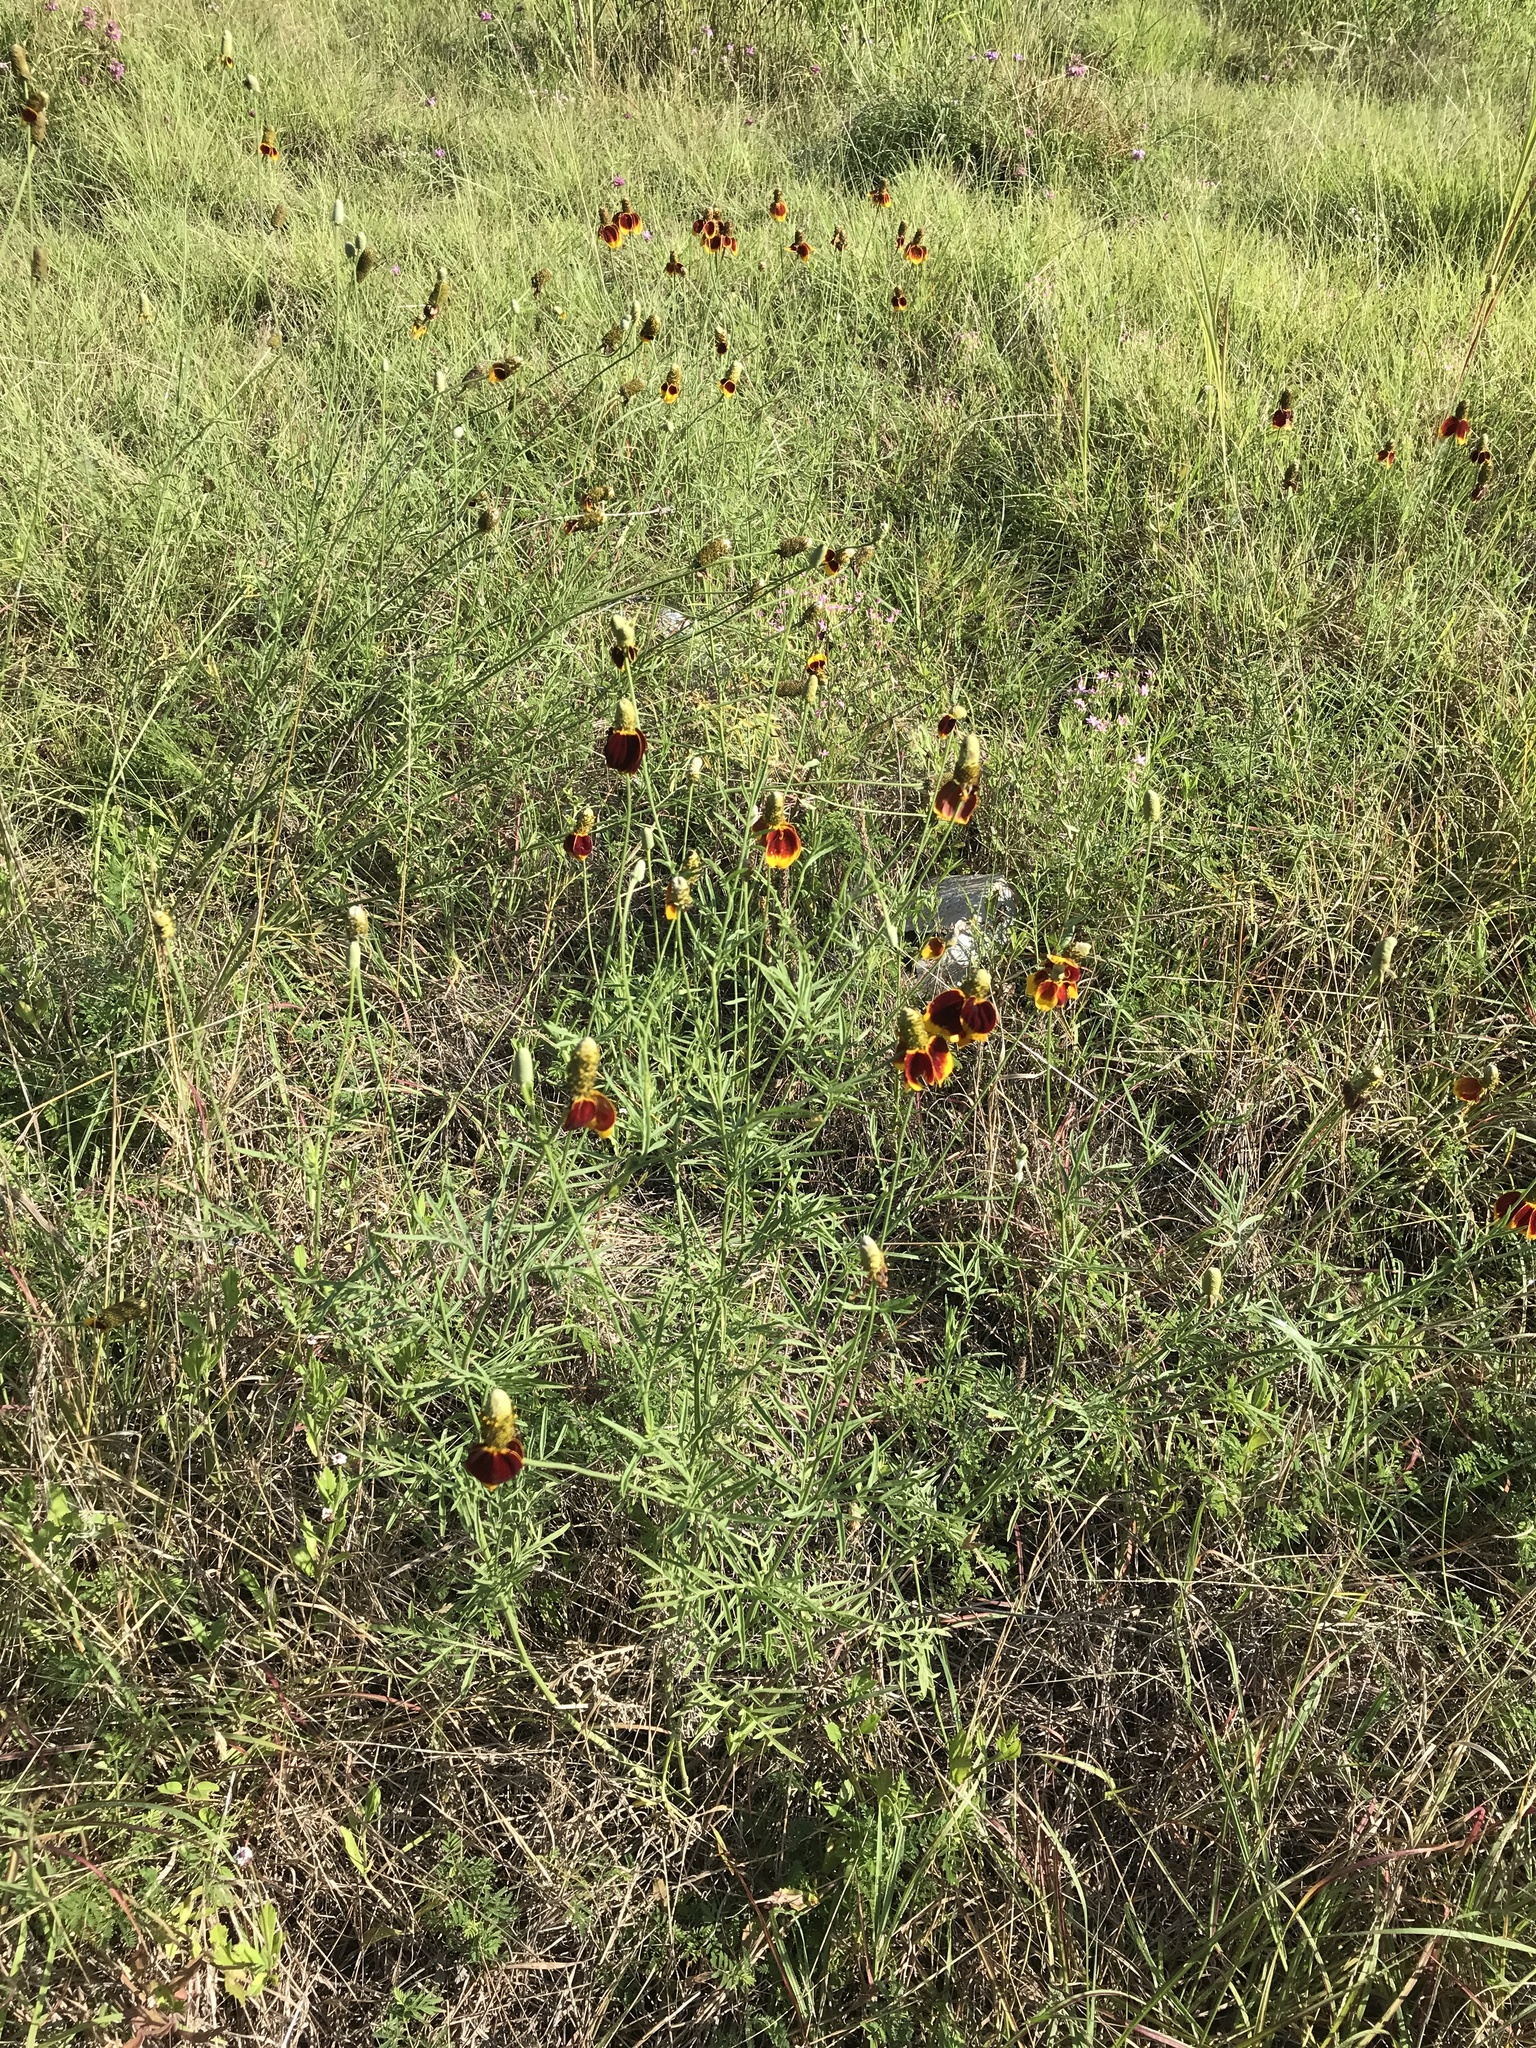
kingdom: Plantae
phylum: Tracheophyta
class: Magnoliopsida
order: Asterales
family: Asteraceae
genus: Ratibida
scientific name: Ratibida columnifera
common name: Prairie coneflower
